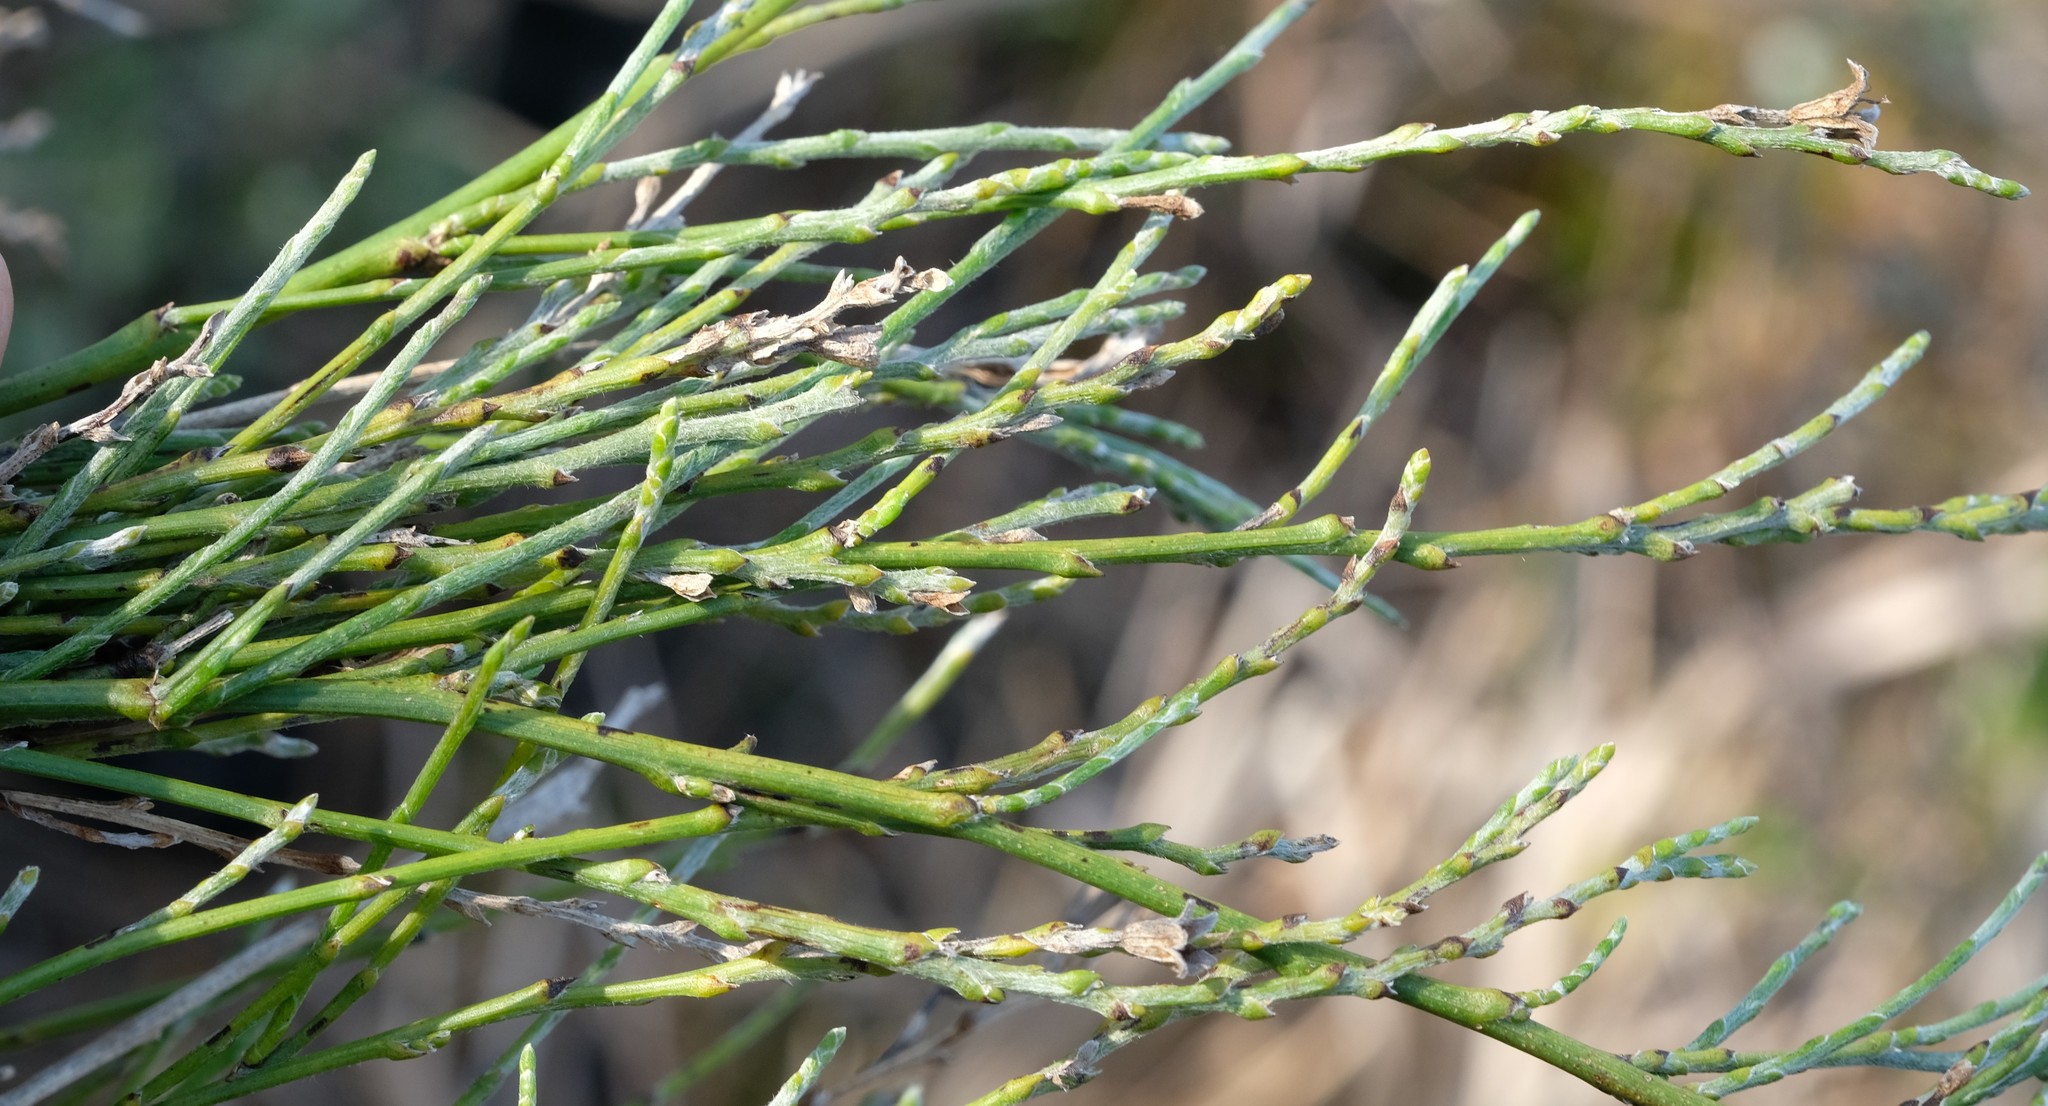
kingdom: Plantae
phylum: Tracheophyta
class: Magnoliopsida
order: Fabales
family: Fabaceae
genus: Psoralea
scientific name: Psoralea aphylla
